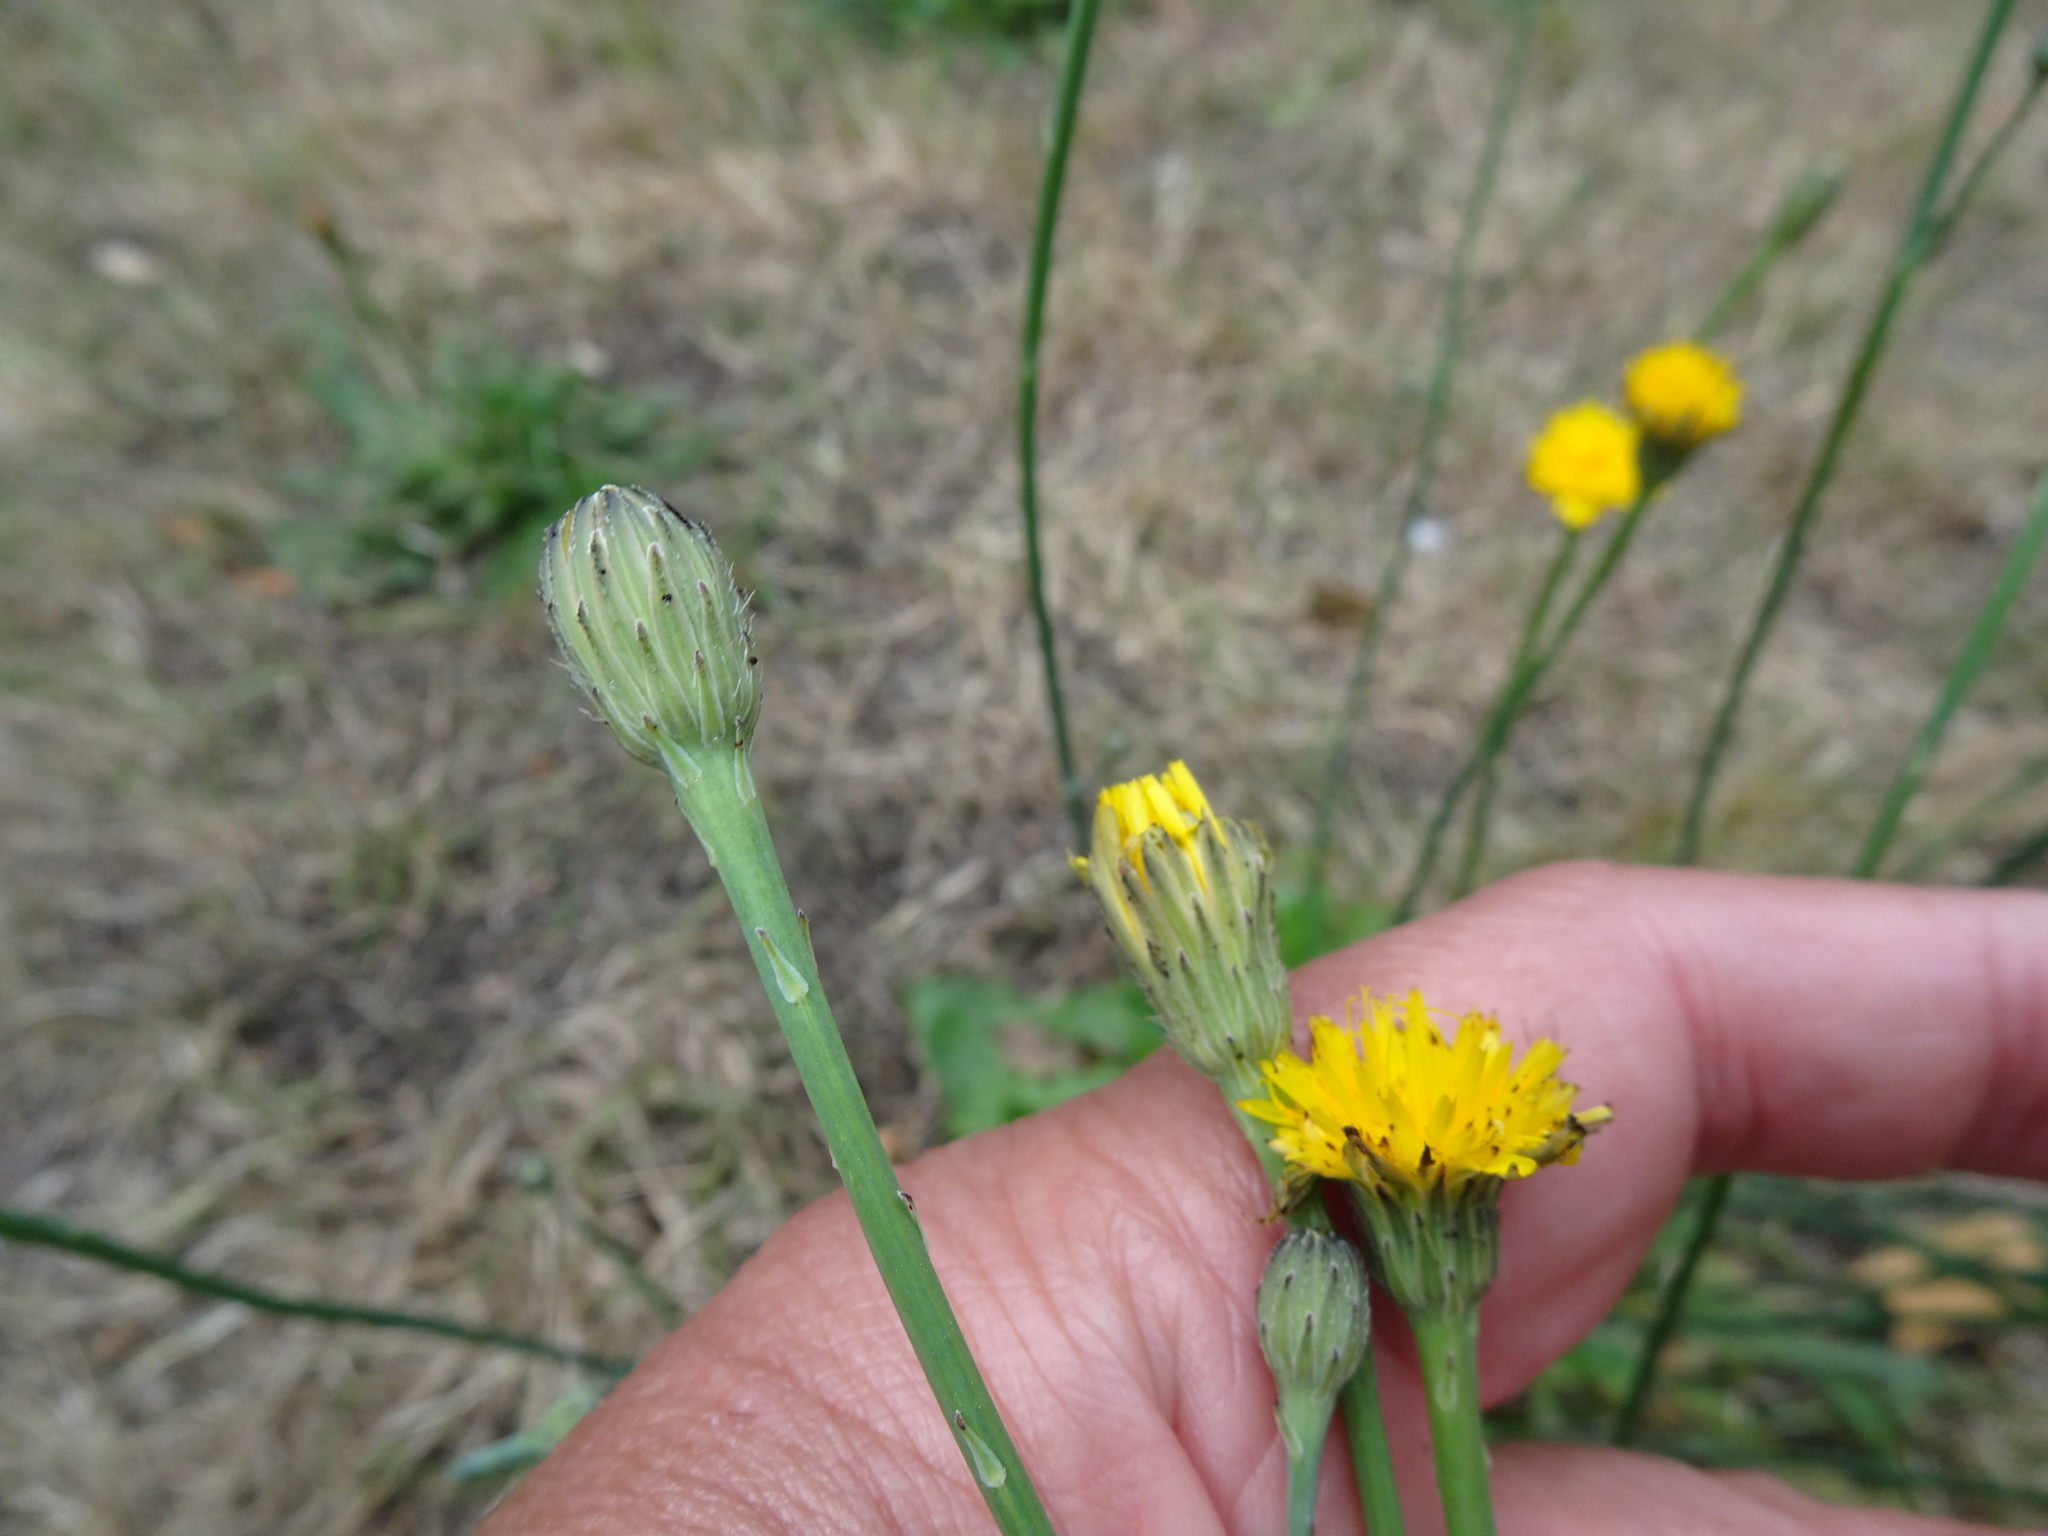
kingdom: Plantae
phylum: Tracheophyta
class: Magnoliopsida
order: Asterales
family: Asteraceae
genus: Hypochaeris
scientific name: Hypochaeris radicata
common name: Flatweed
